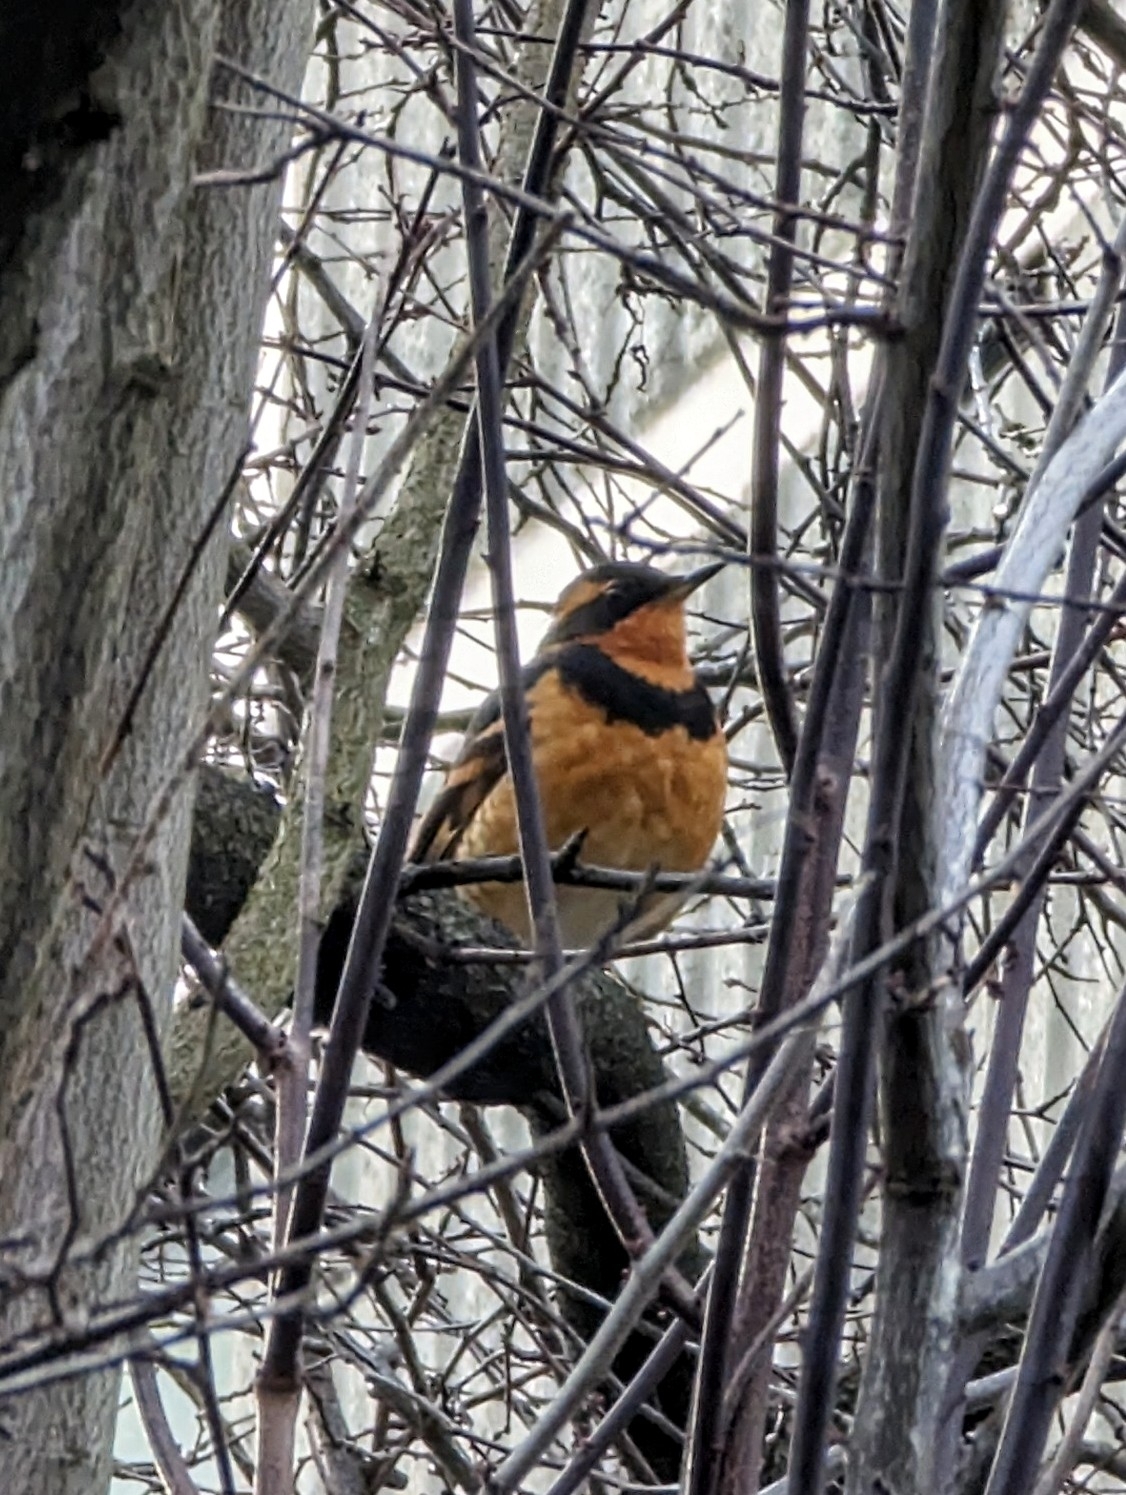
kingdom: Animalia
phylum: Chordata
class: Aves
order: Passeriformes
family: Turdidae
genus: Ixoreus
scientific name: Ixoreus naevius
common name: Varied thrush
